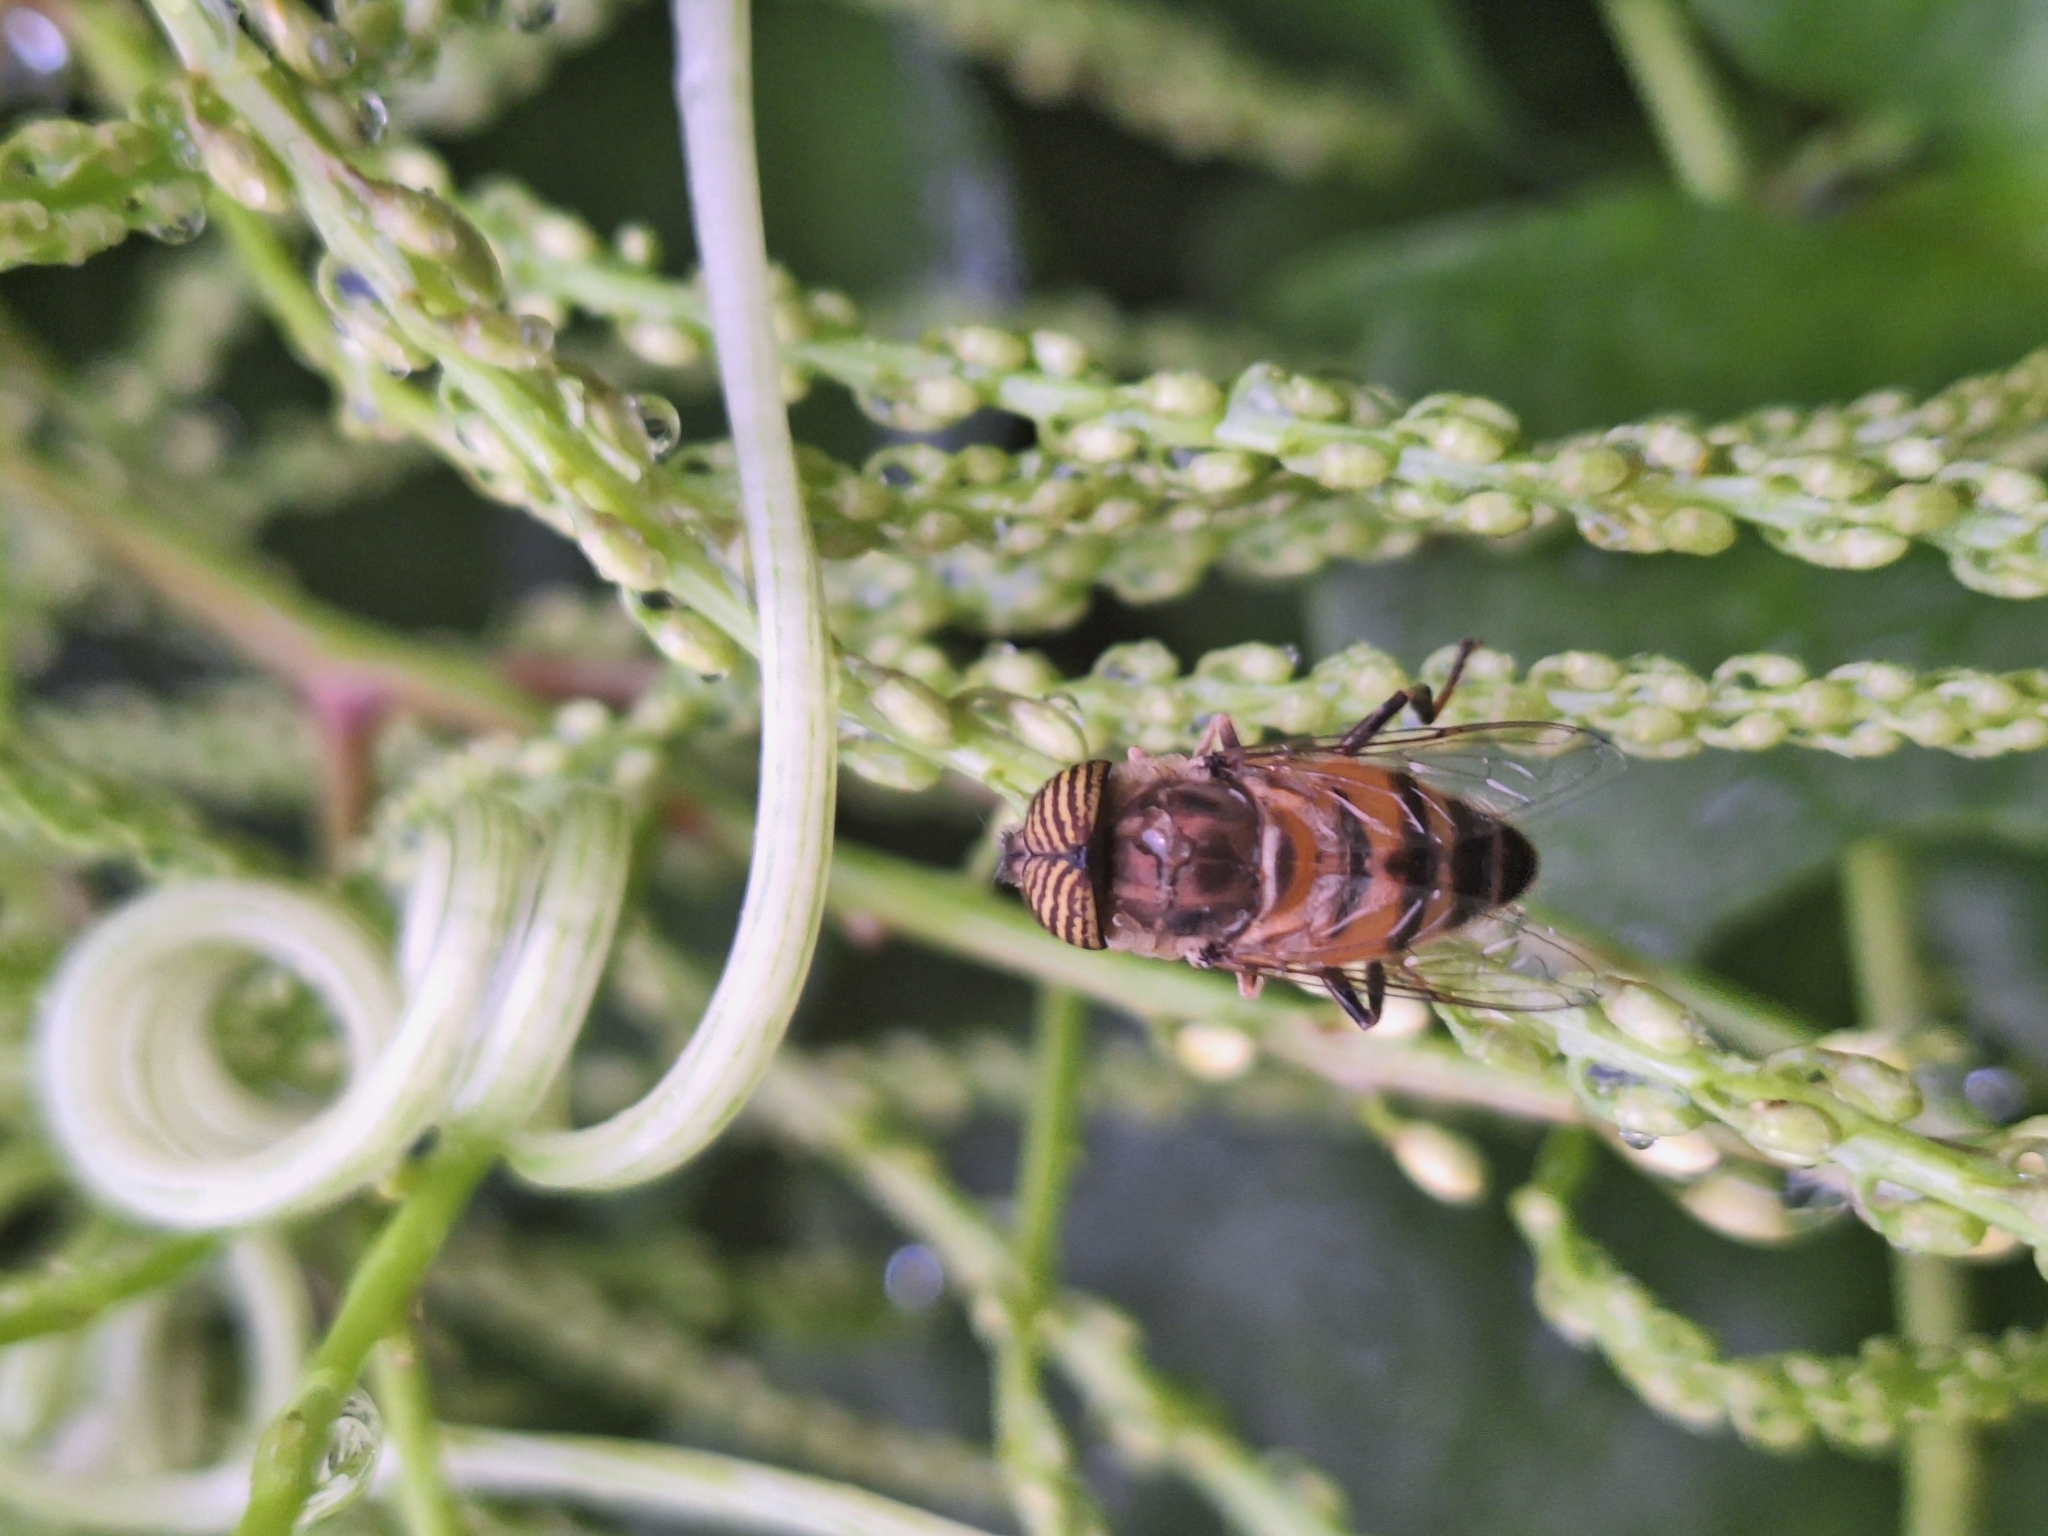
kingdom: Animalia
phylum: Arthropoda
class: Insecta
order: Diptera
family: Syrphidae
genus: Eristalinus
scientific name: Eristalinus taeniops
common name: Syrphid fly
